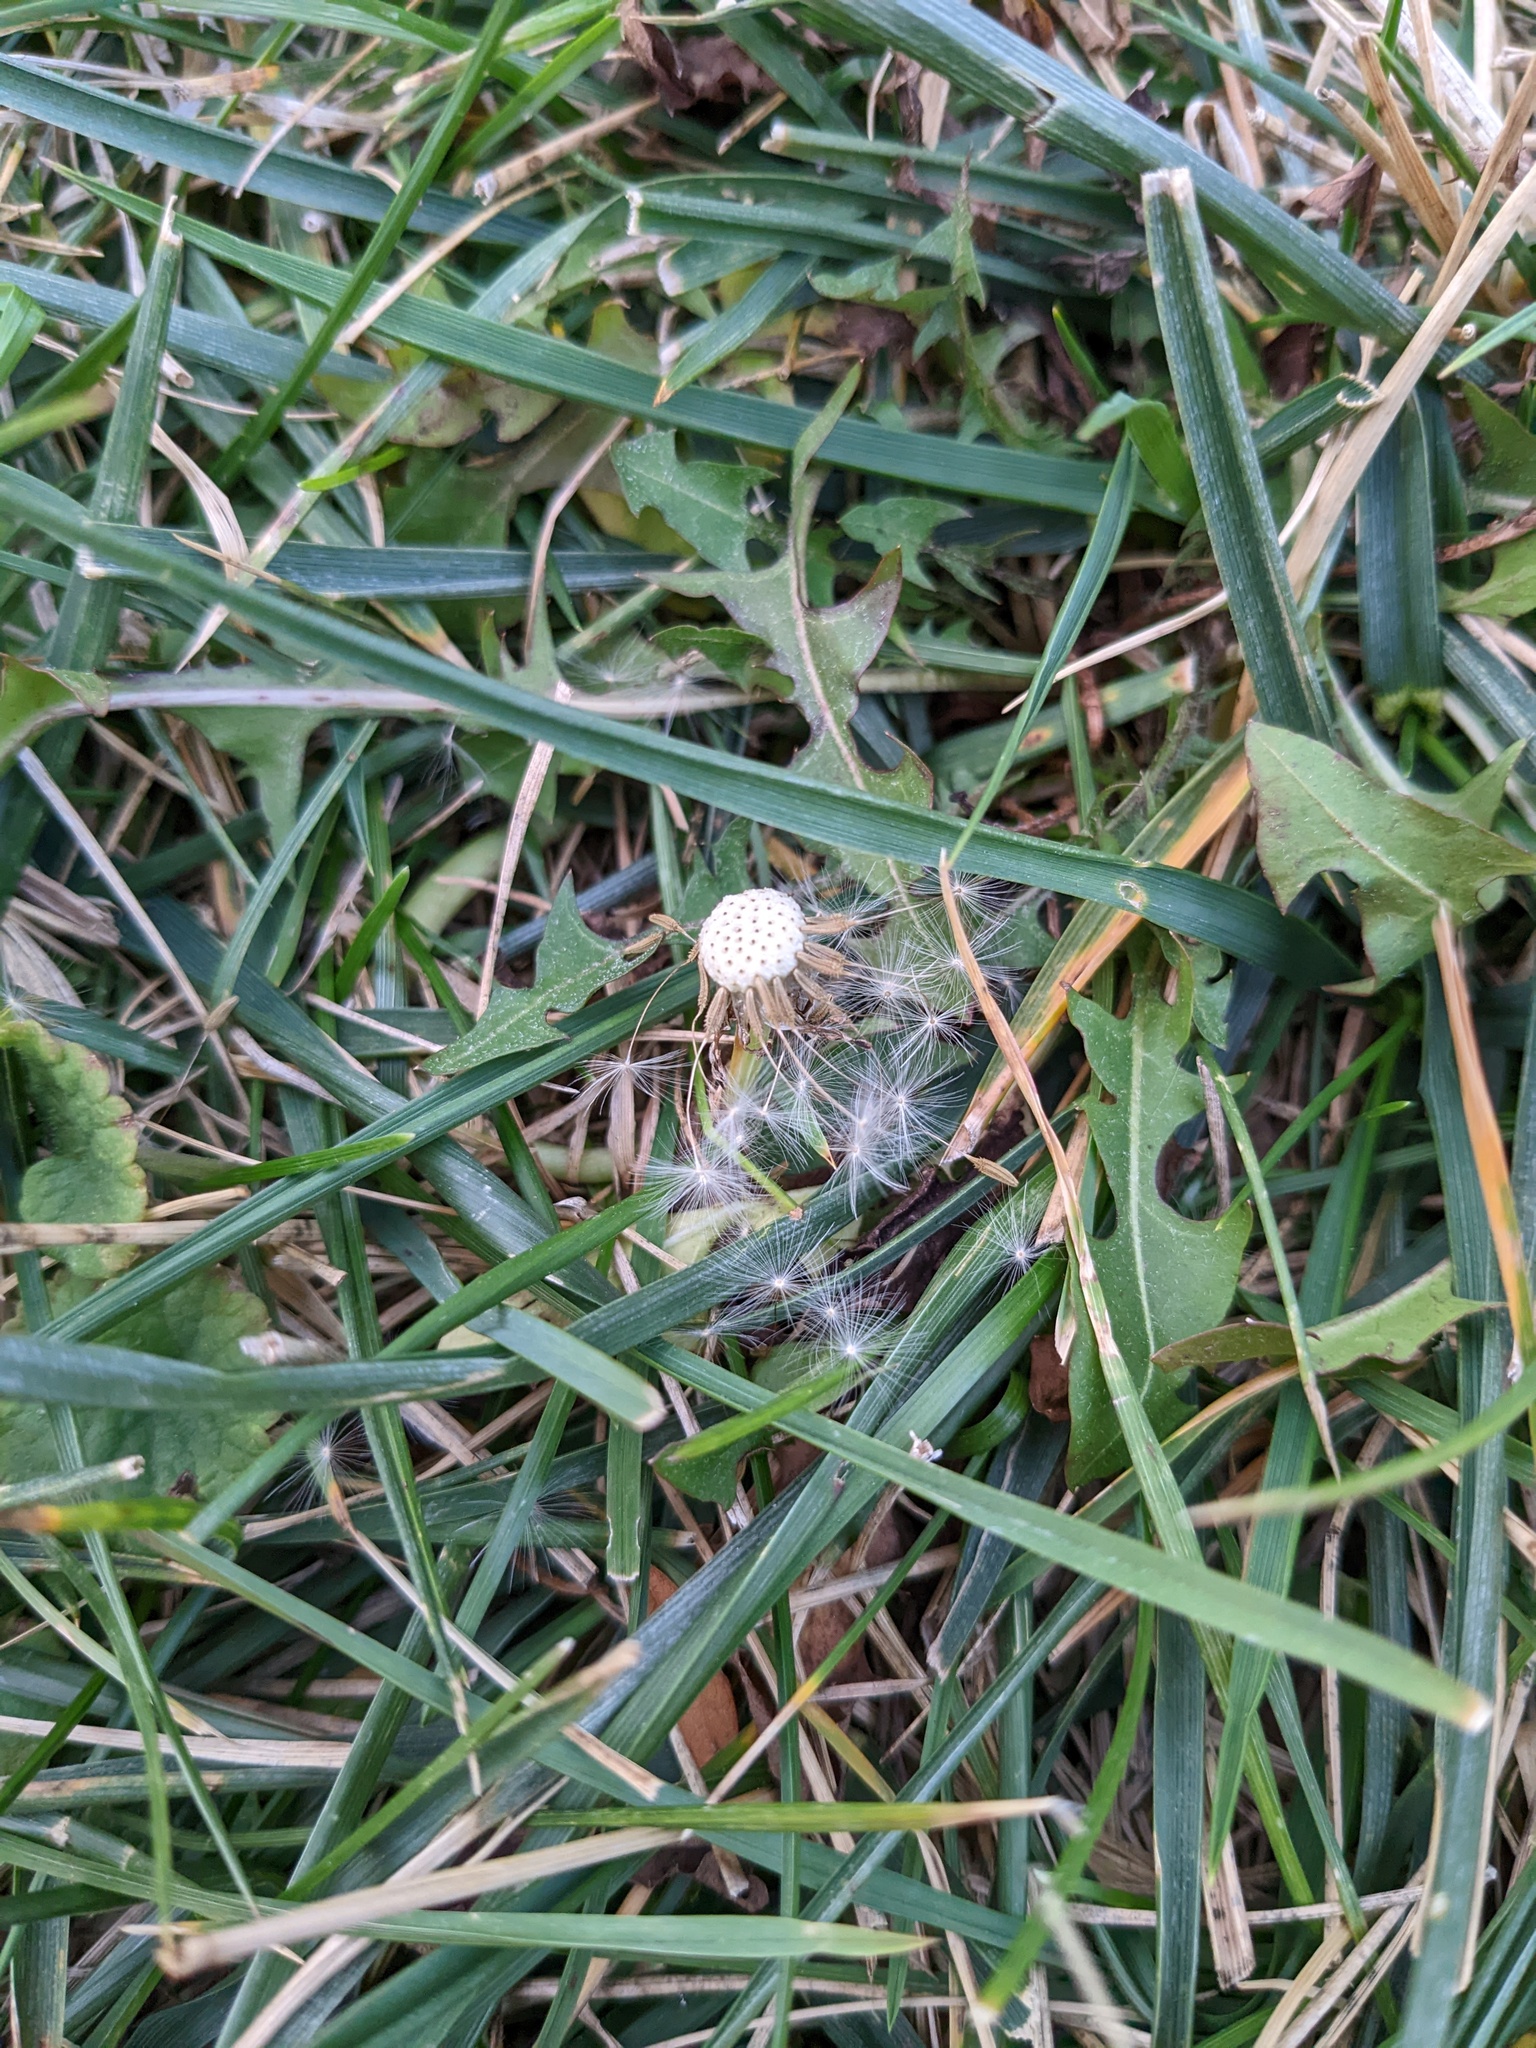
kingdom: Plantae
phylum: Tracheophyta
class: Magnoliopsida
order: Asterales
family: Asteraceae
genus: Taraxacum
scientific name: Taraxacum officinale
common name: Common dandelion
